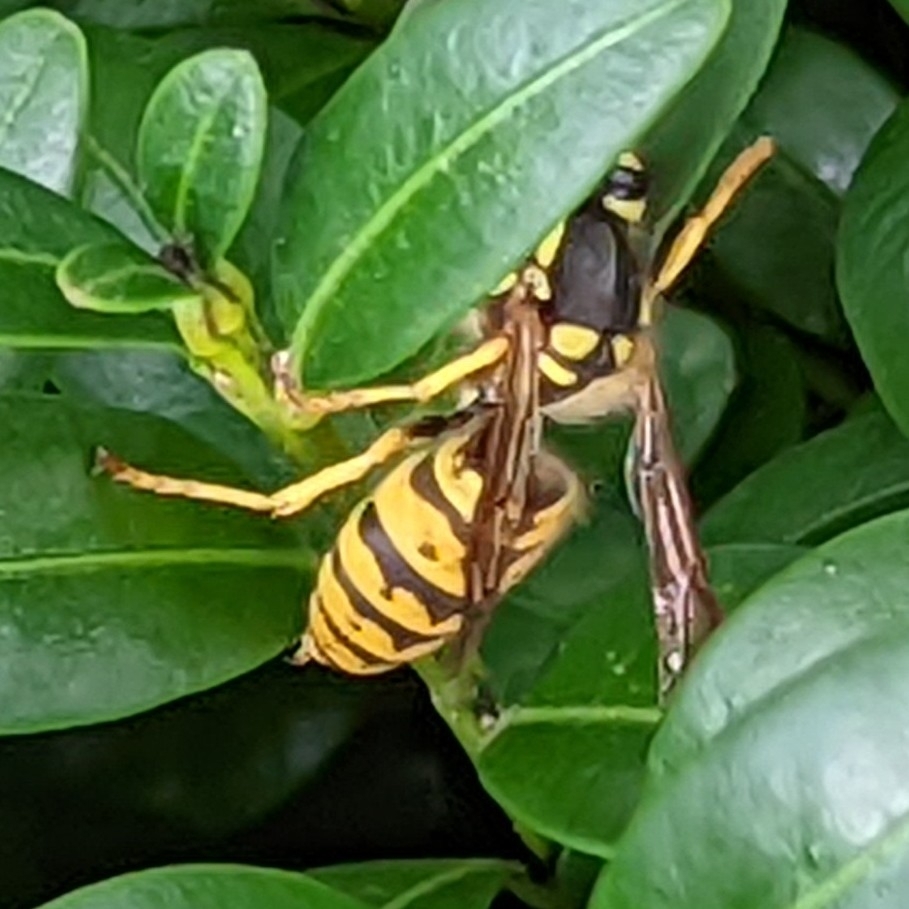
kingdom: Animalia
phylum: Arthropoda
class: Insecta
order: Hymenoptera
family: Vespidae
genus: Vespula
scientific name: Vespula germanica
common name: German wasp
